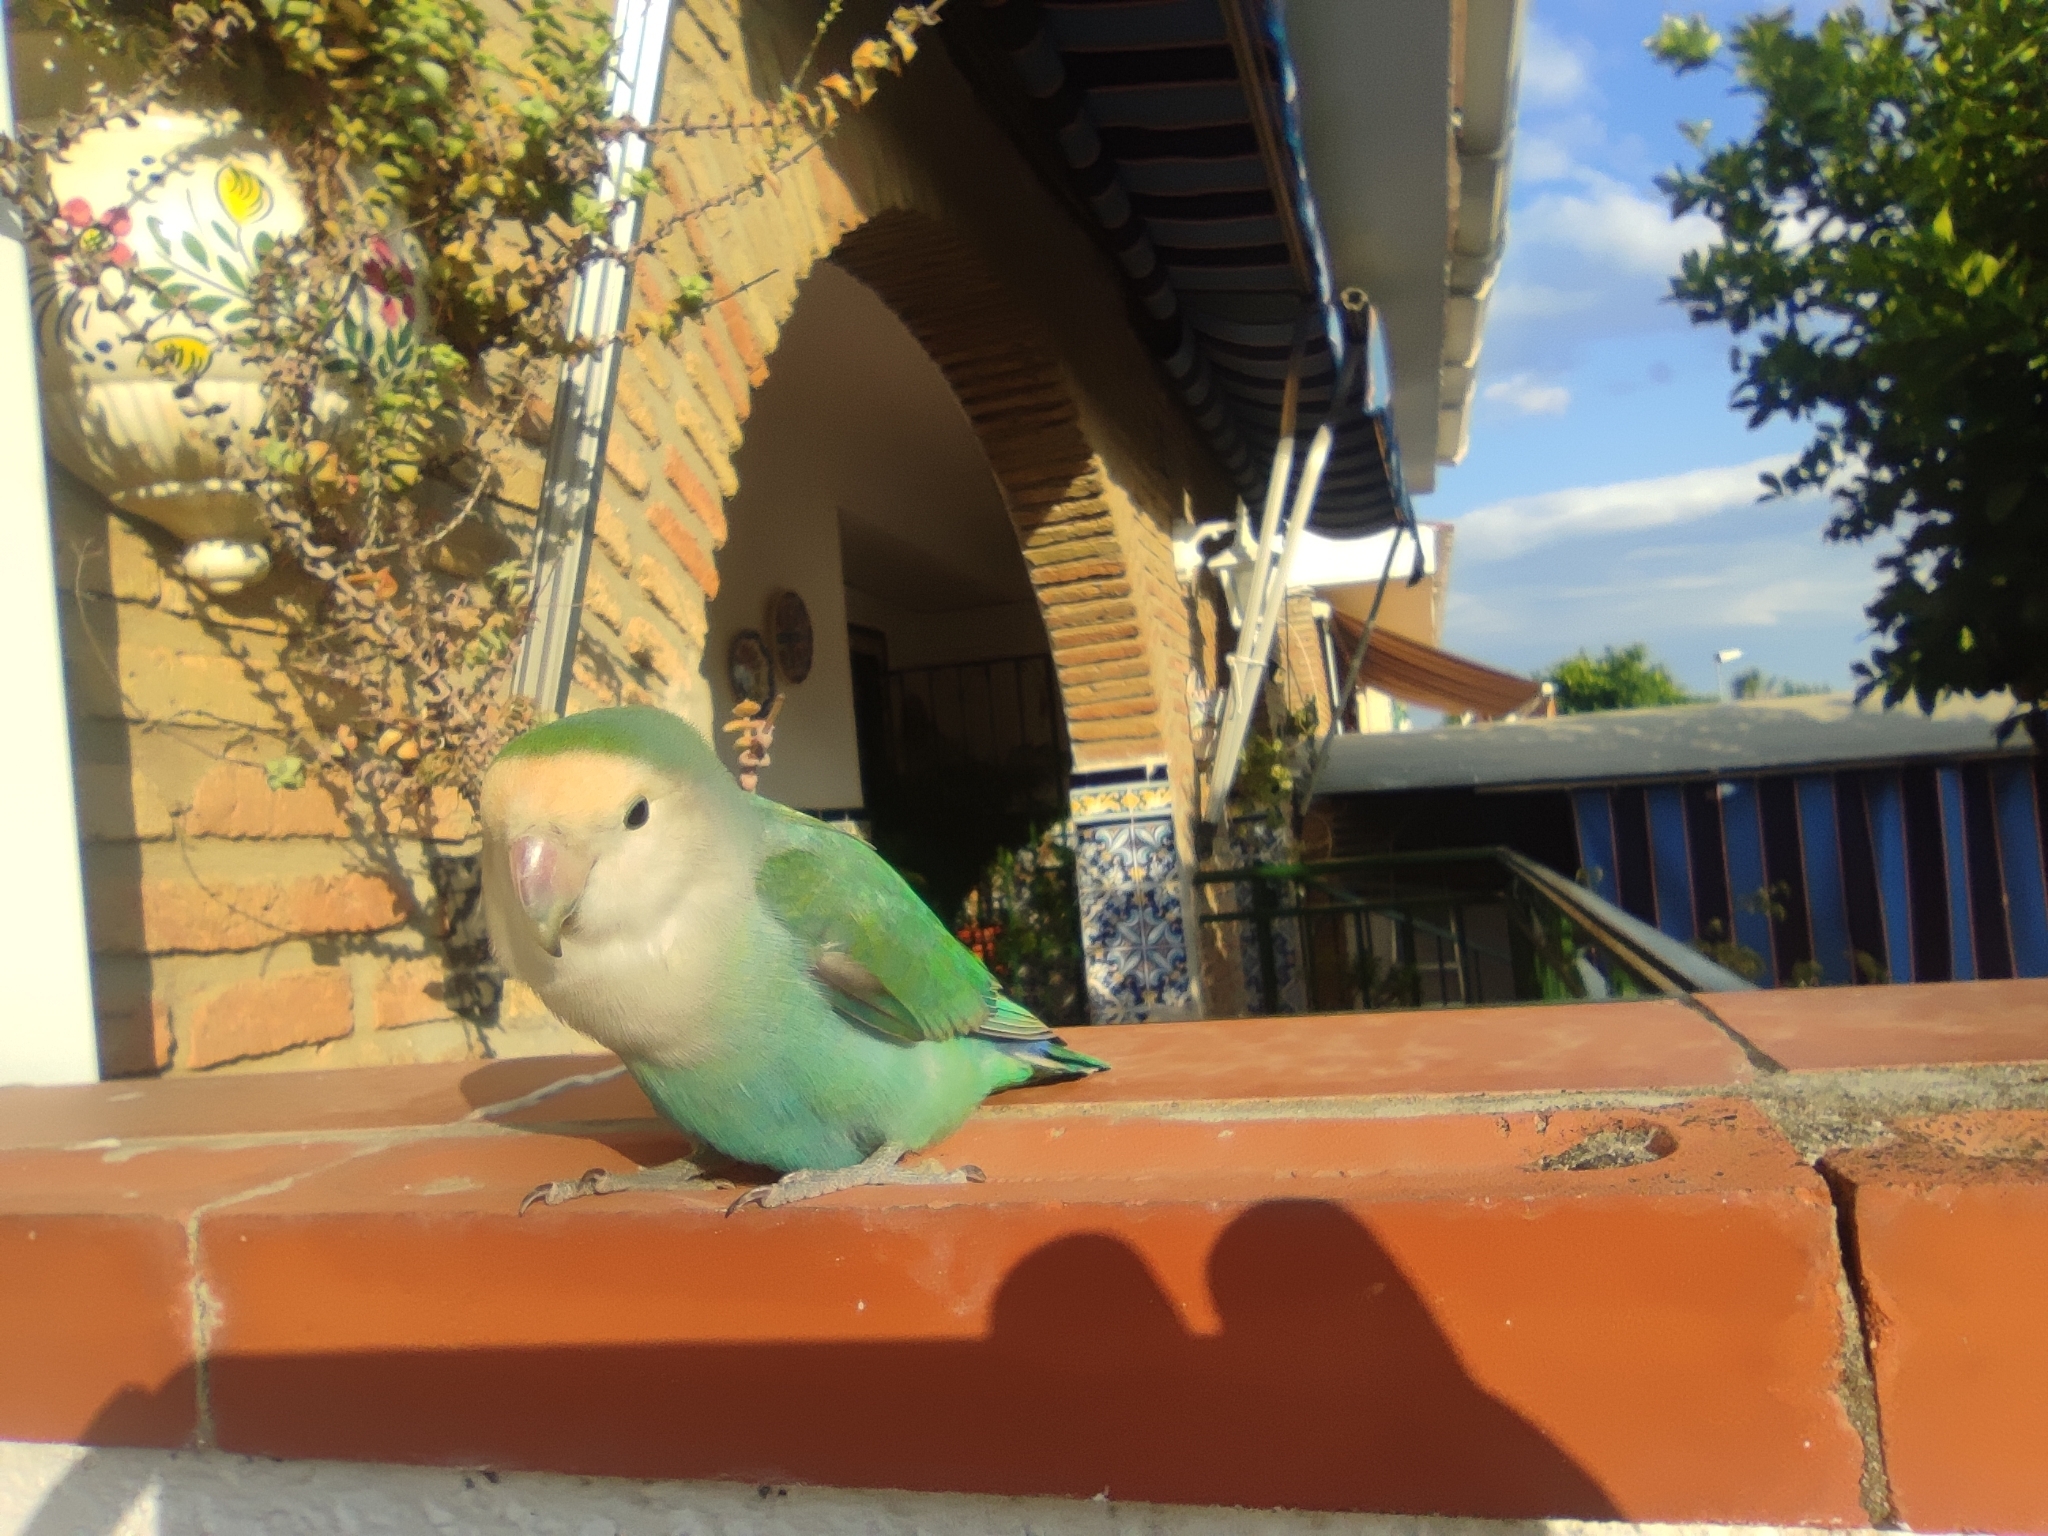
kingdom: Animalia
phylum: Chordata
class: Aves
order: Psittaciformes
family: Psittacidae
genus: Agapornis
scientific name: Agapornis roseicollis
